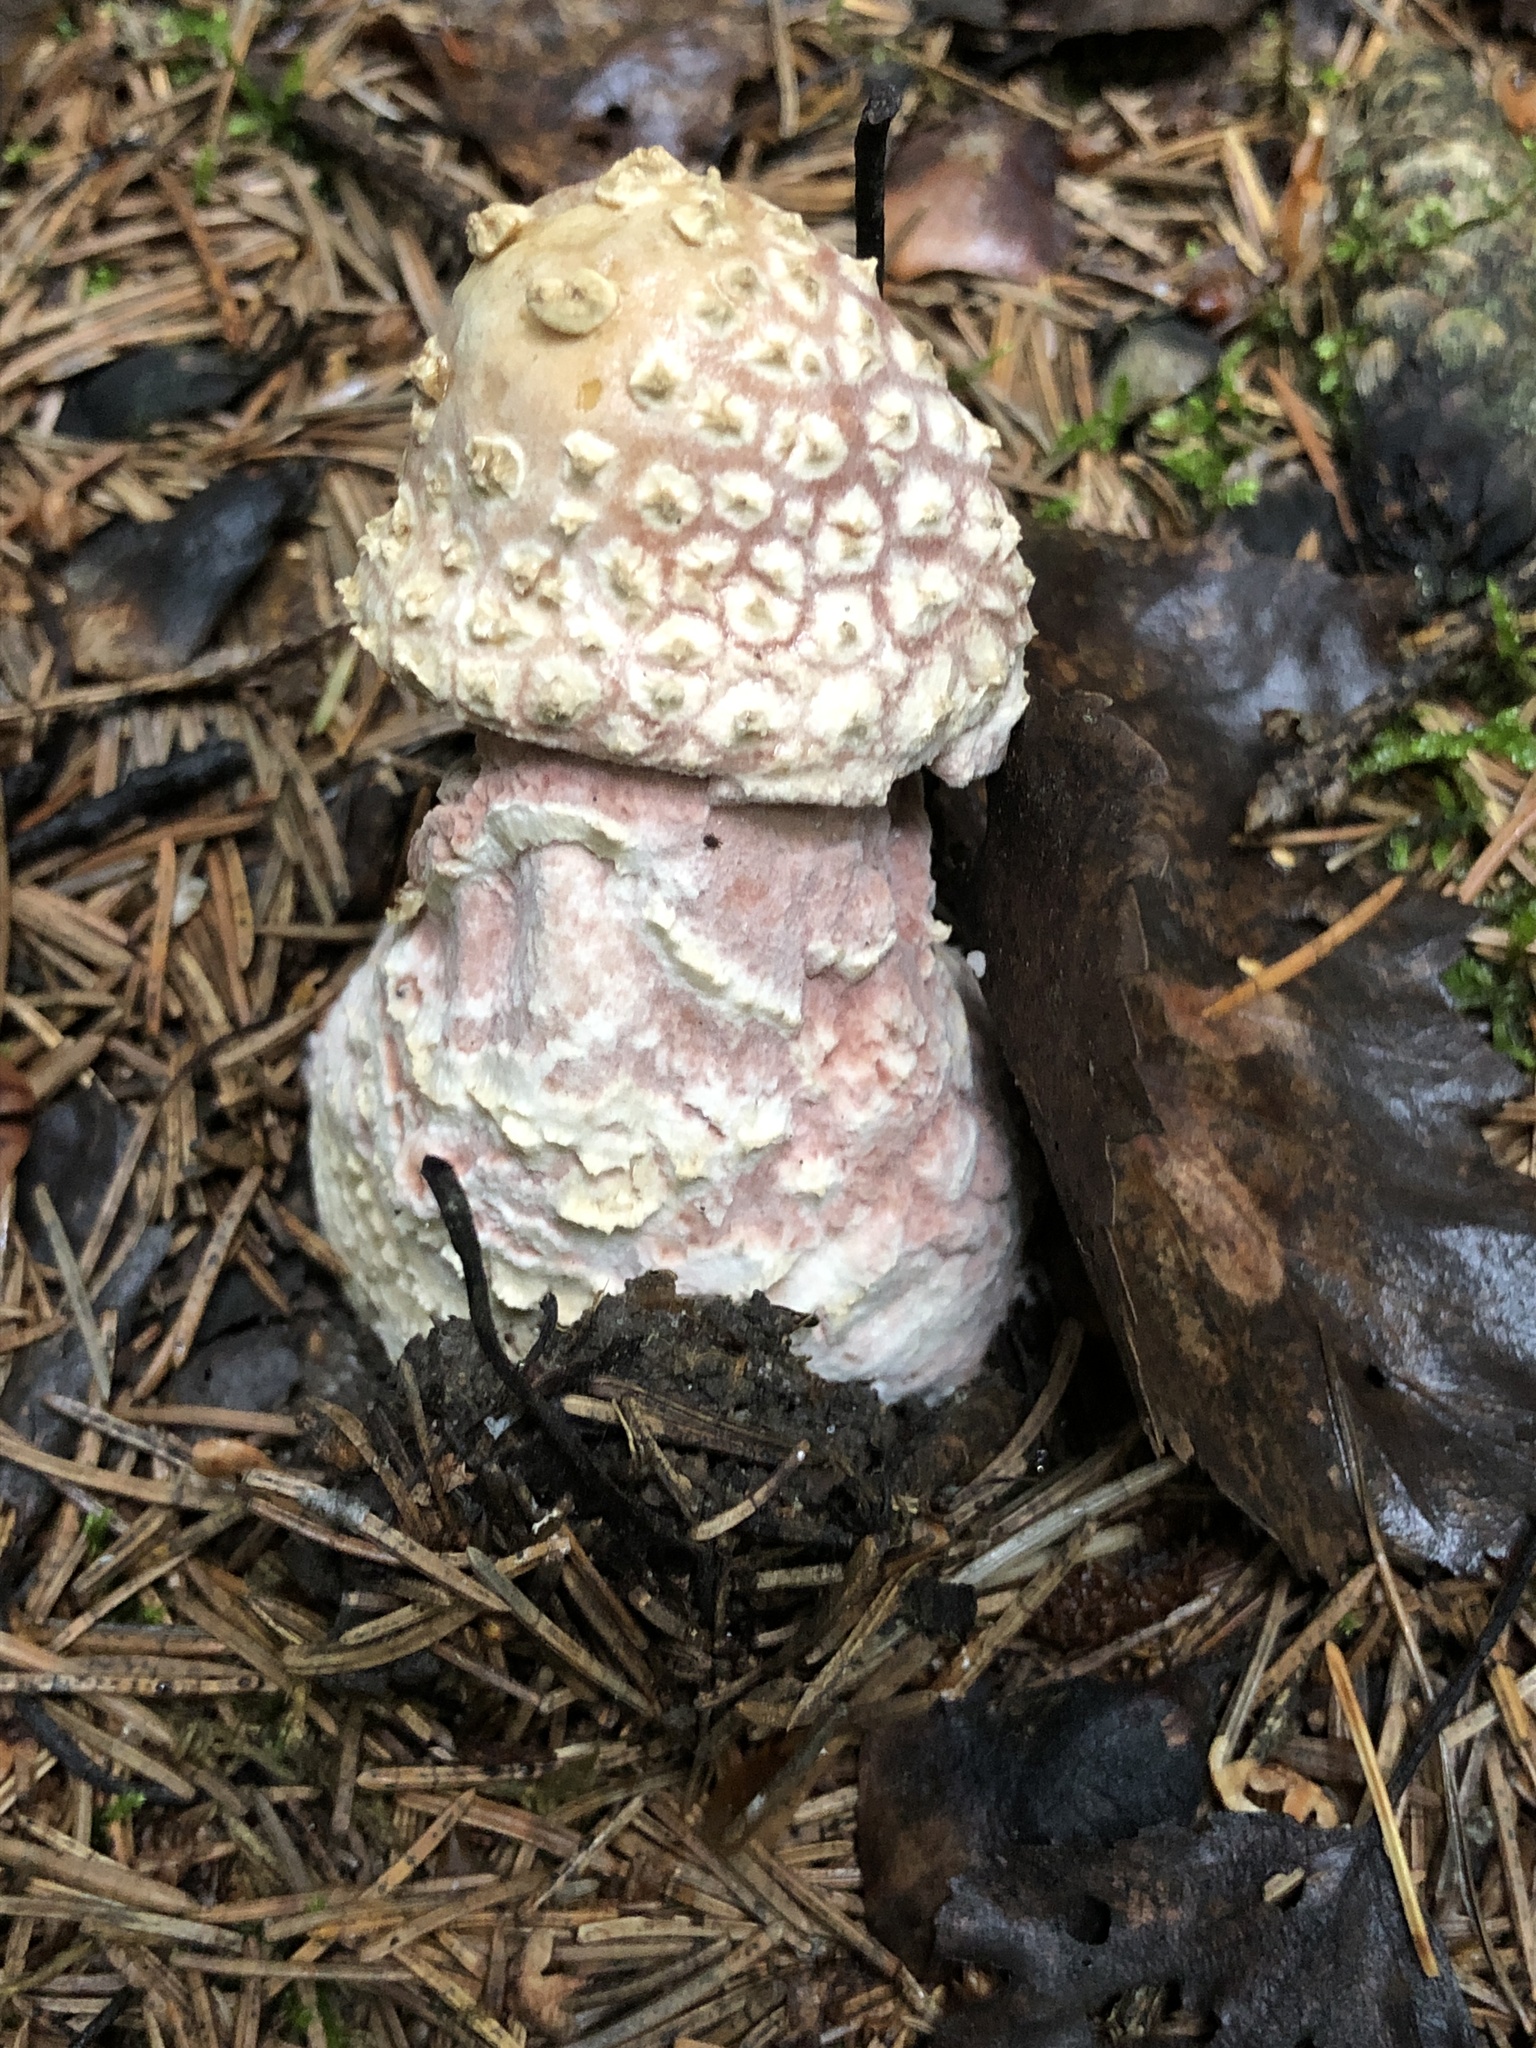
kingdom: Fungi
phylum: Basidiomycota
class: Agaricomycetes
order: Agaricales
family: Amanitaceae
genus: Amanita
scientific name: Amanita rubescens
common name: Blusher
